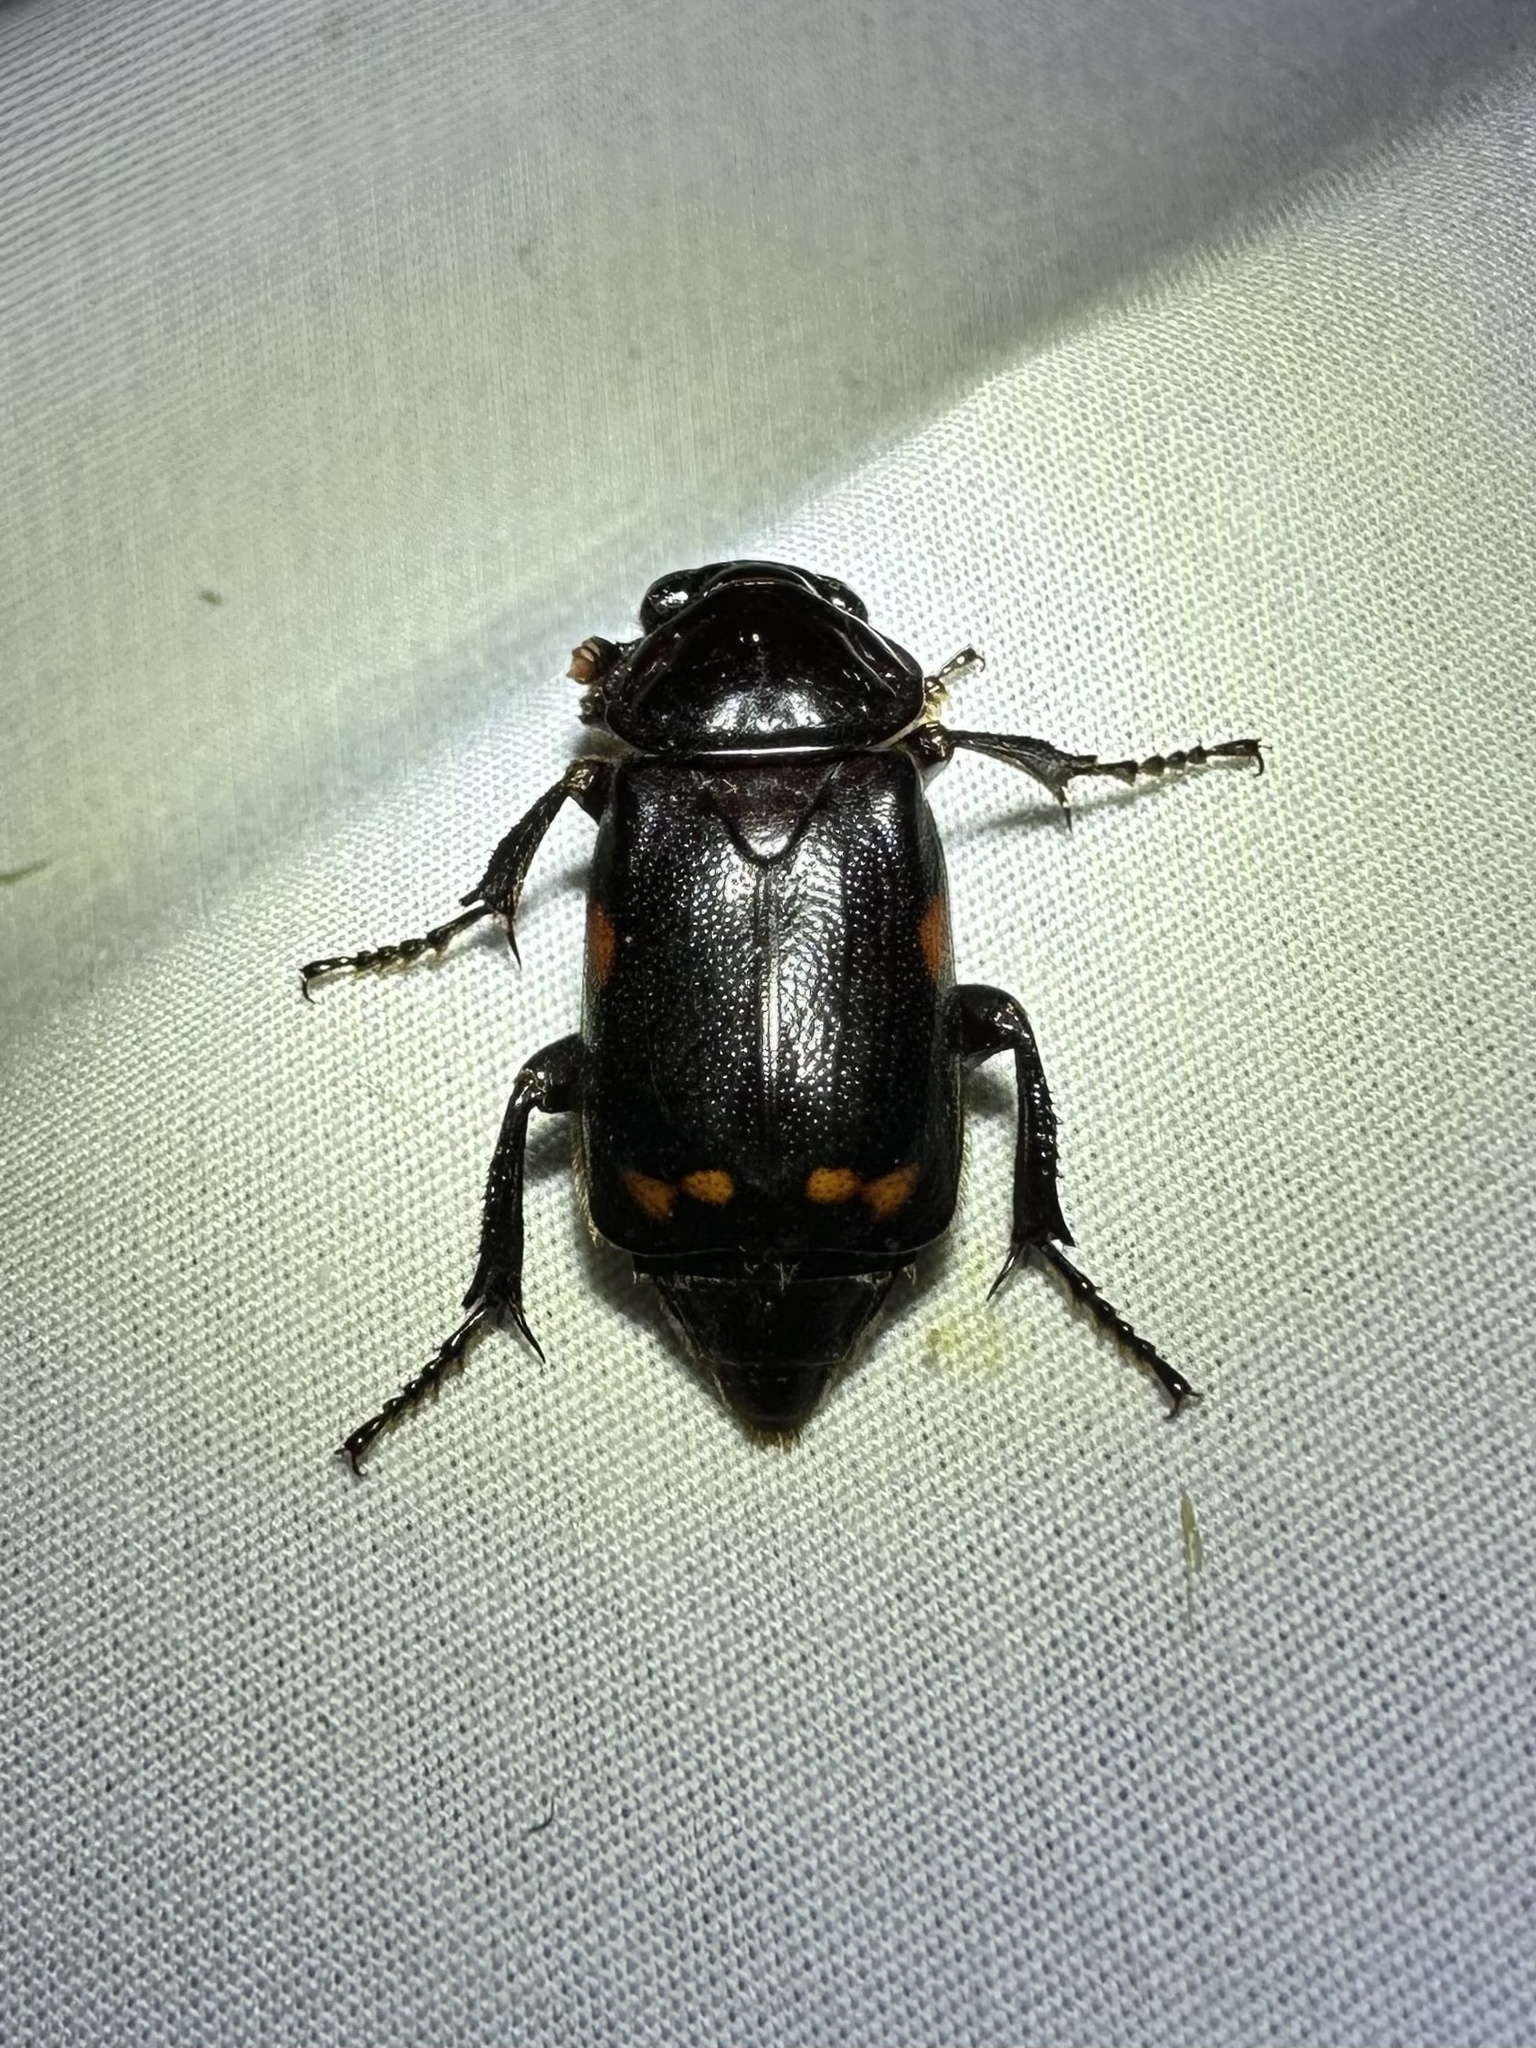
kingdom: Animalia
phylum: Arthropoda
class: Insecta
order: Coleoptera
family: Staphylinidae
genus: Nicrophorus
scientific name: Nicrophorus pustulatus
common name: Pustulated carrion beetle
